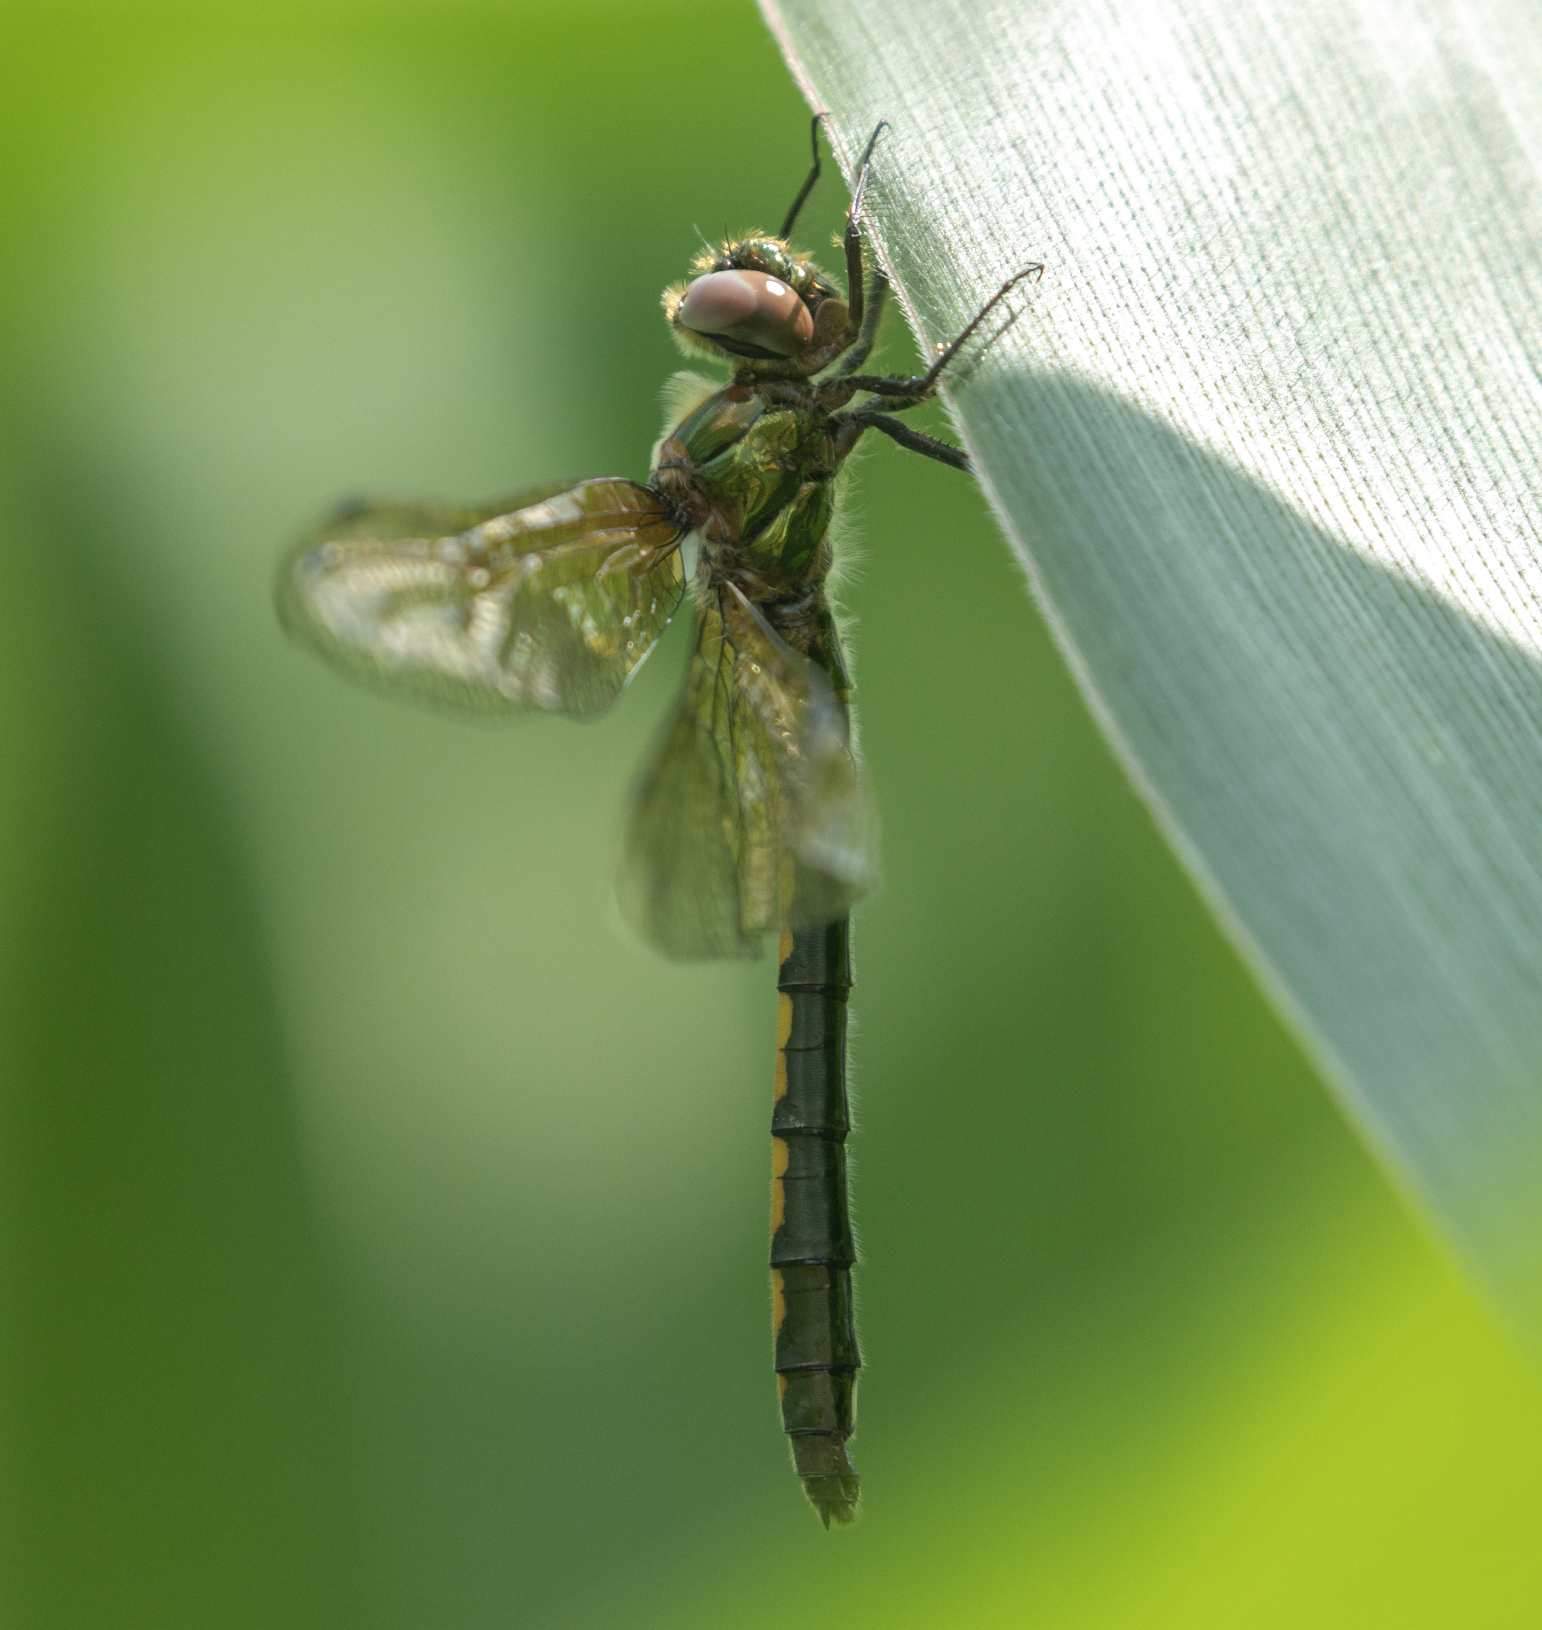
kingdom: Animalia
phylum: Arthropoda
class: Insecta
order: Odonata
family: Corduliidae
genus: Oxygastra
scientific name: Oxygastra curtisii
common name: Orange-spotted emerald
